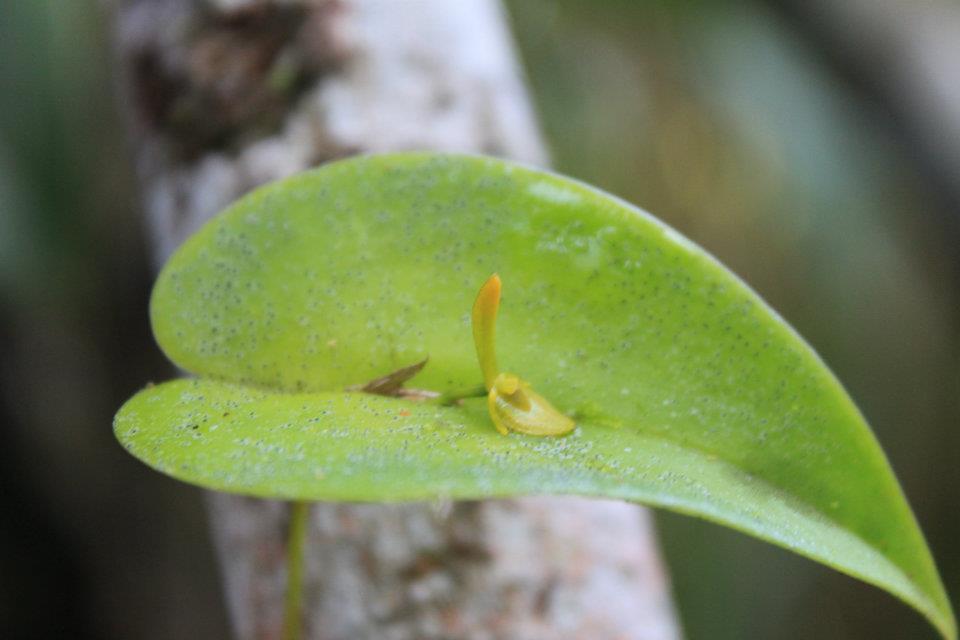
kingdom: Plantae
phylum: Tracheophyta
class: Liliopsida
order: Asparagales
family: Orchidaceae
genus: Pleurothallis
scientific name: Pleurothallis bivalvis
